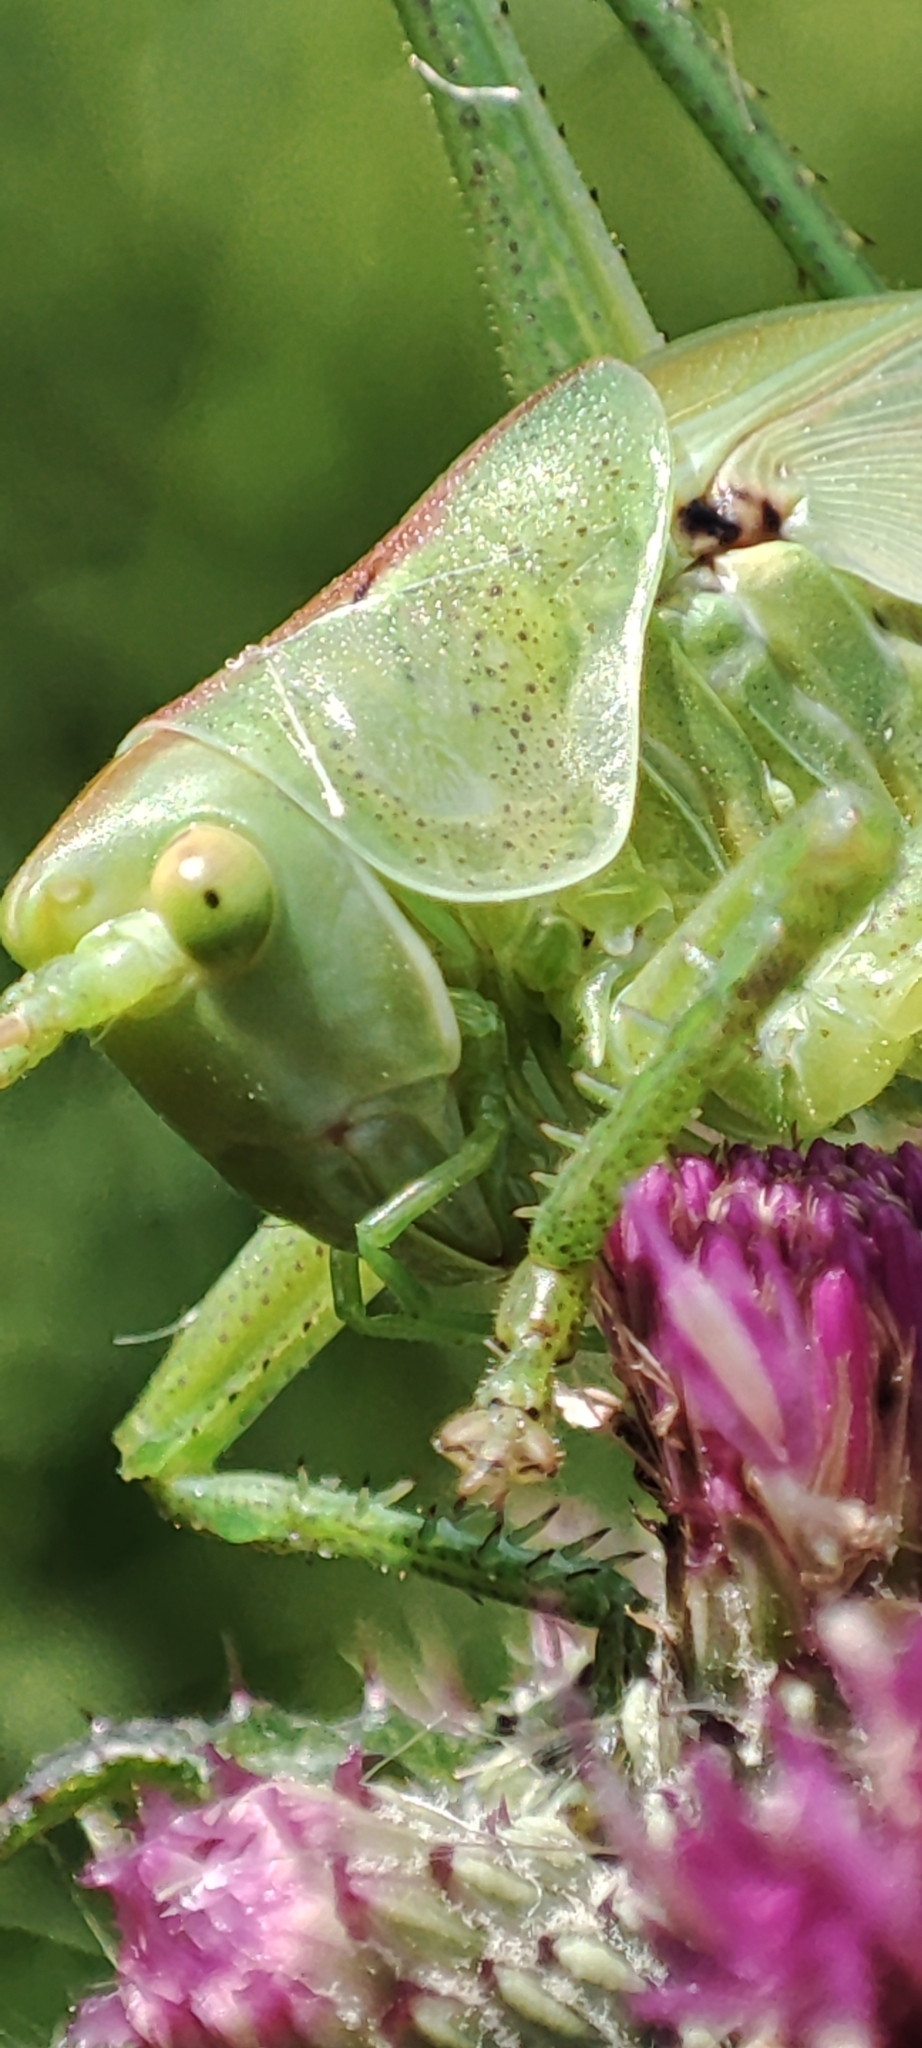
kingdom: Animalia
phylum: Arthropoda
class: Insecta
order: Orthoptera
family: Tettigoniidae
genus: Tettigonia
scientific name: Tettigonia viridissima
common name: Great green bush-cricket
